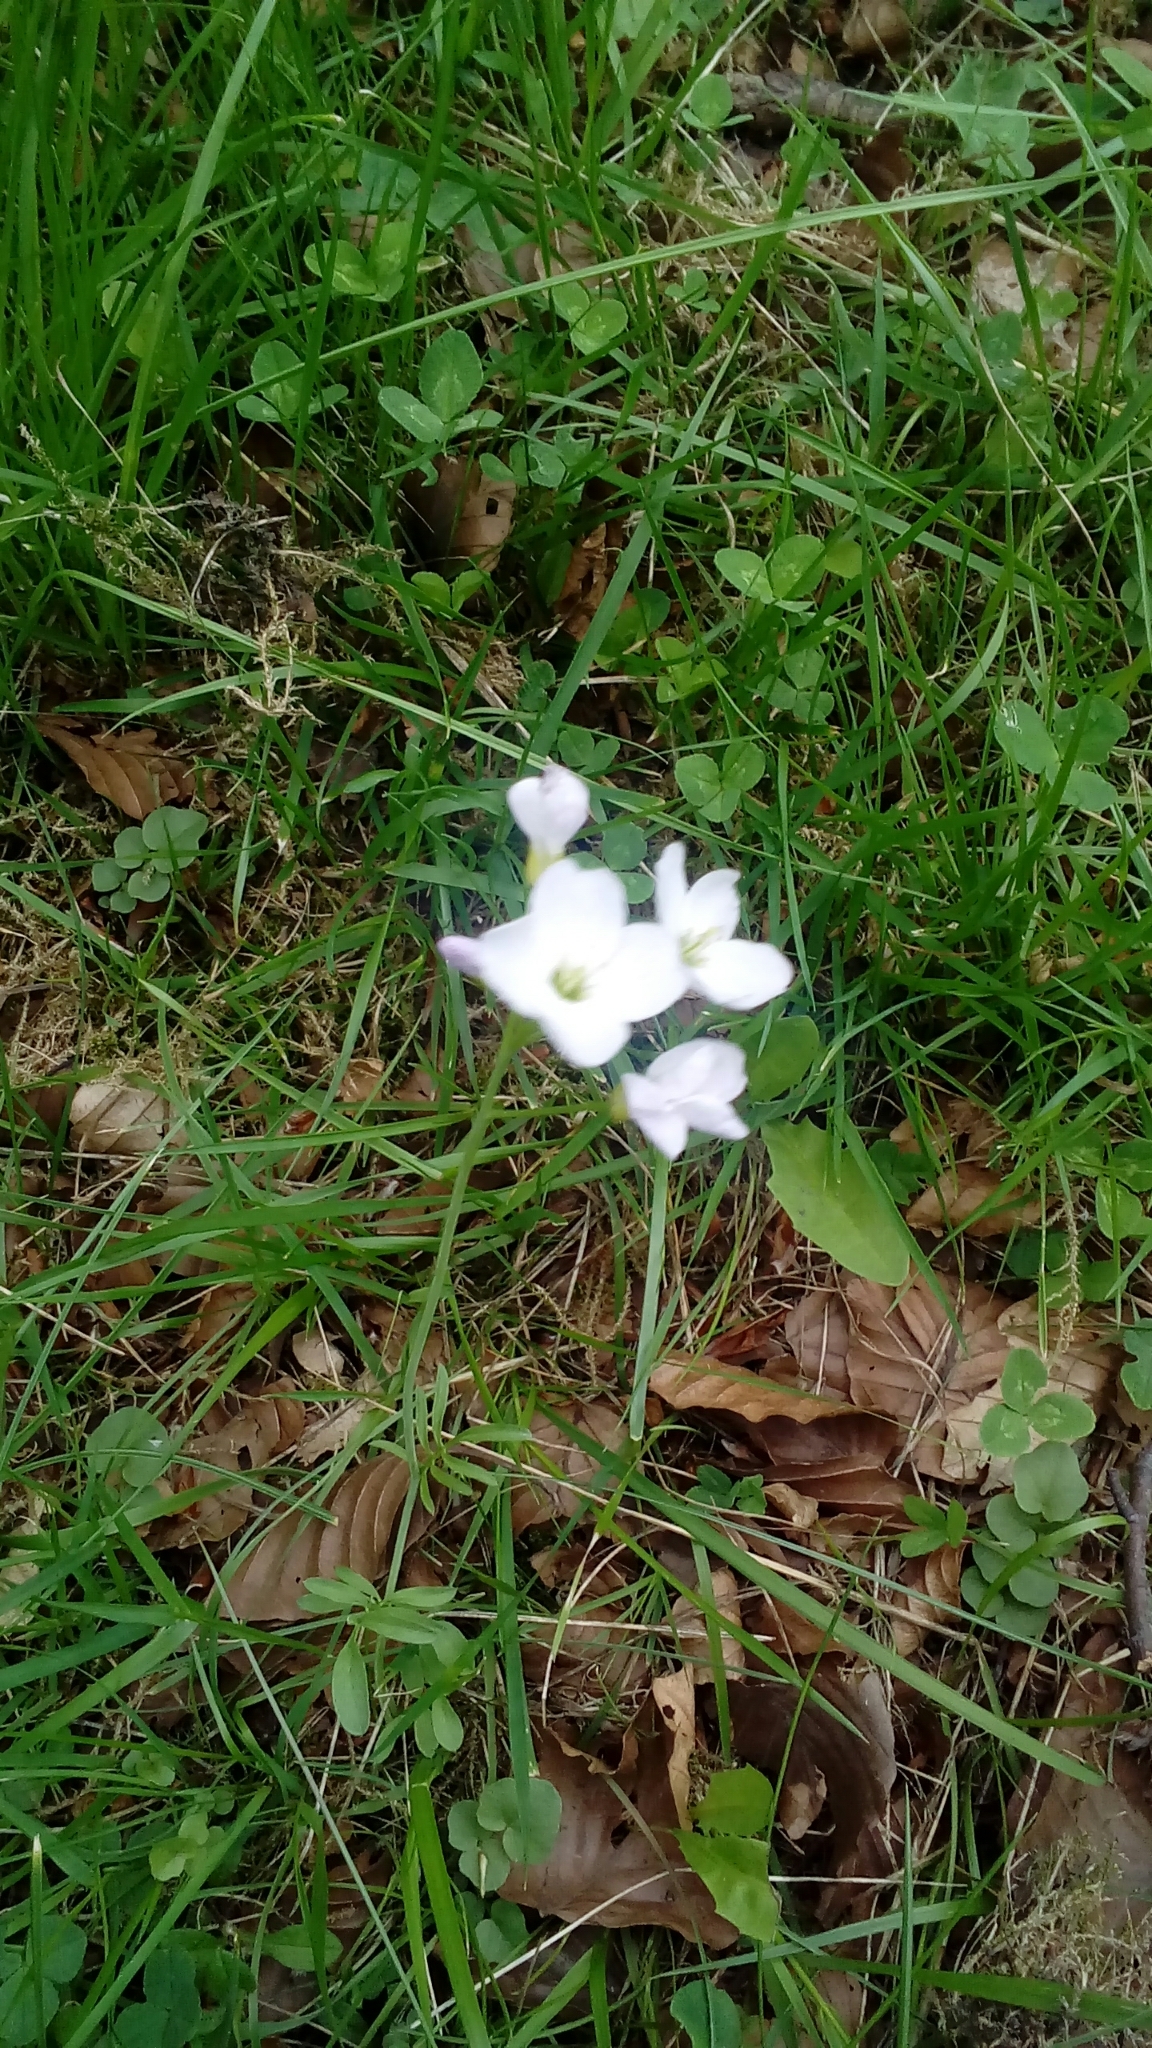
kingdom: Plantae
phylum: Tracheophyta
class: Magnoliopsida
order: Brassicales
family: Brassicaceae
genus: Cardamine
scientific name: Cardamine pratensis
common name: Cuckoo flower
